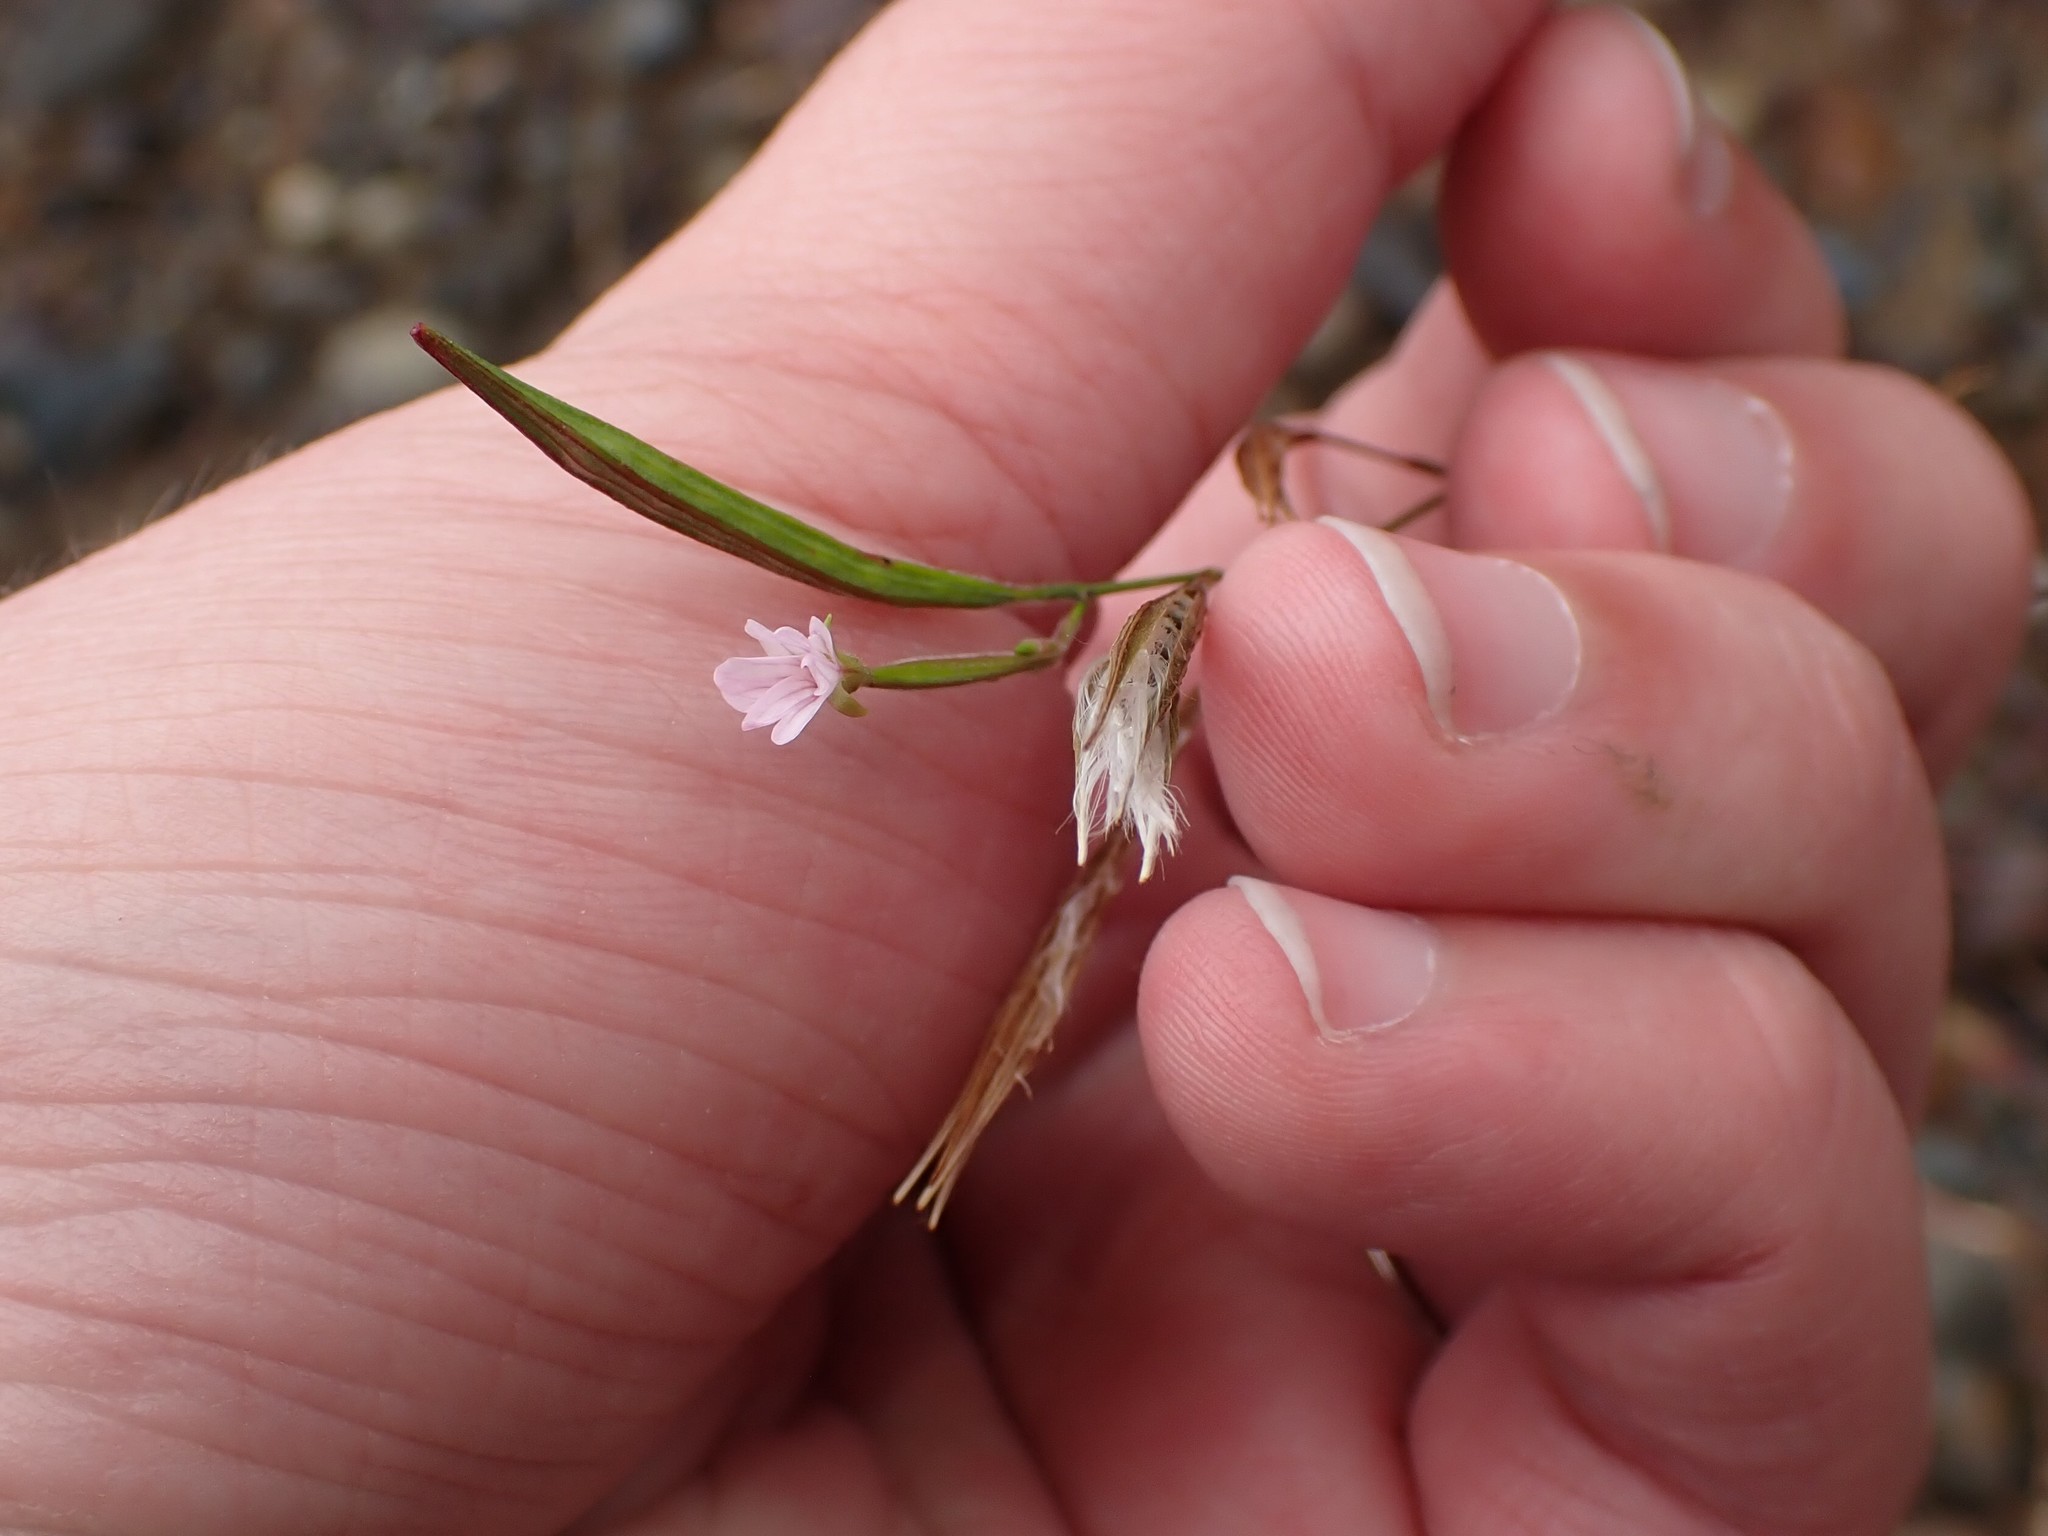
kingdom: Plantae
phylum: Tracheophyta
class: Magnoliopsida
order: Myrtales
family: Onagraceae
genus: Epilobium
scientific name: Epilobium brachycarpum
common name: Annual willowherb
